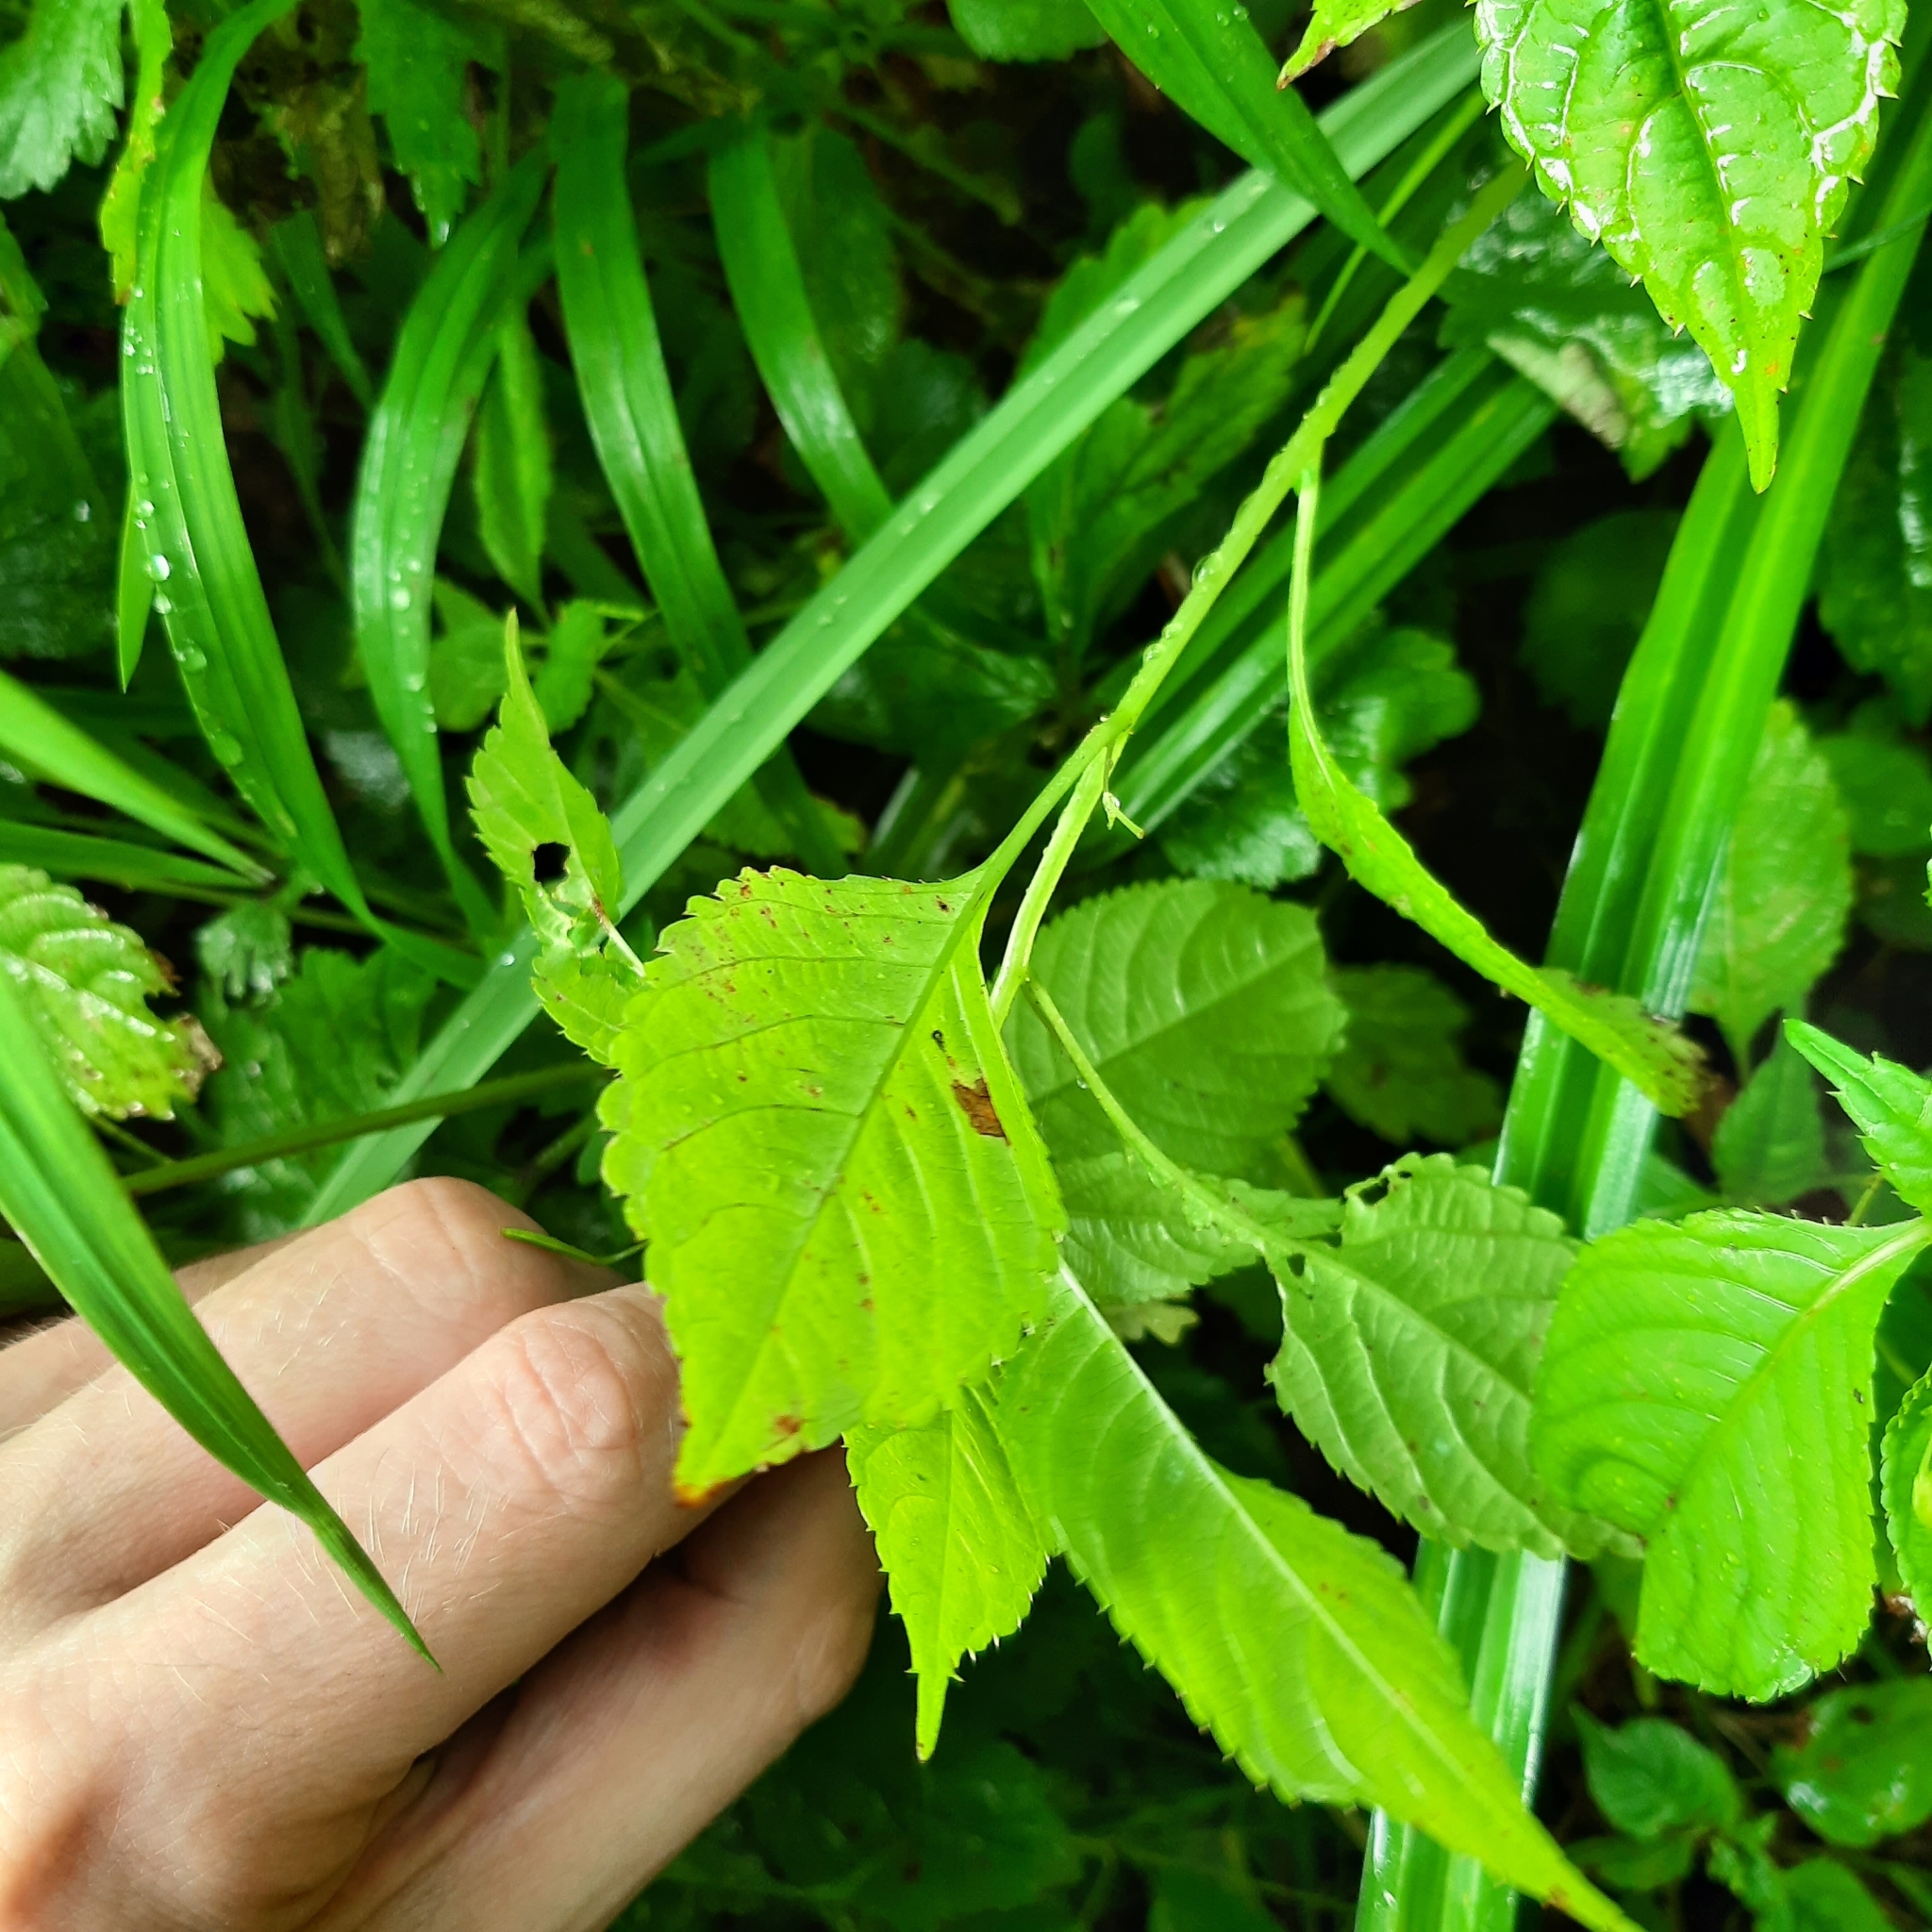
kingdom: Plantae
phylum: Tracheophyta
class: Magnoliopsida
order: Ericales
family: Balsaminaceae
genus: Impatiens
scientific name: Impatiens parviflora
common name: Small balsam
